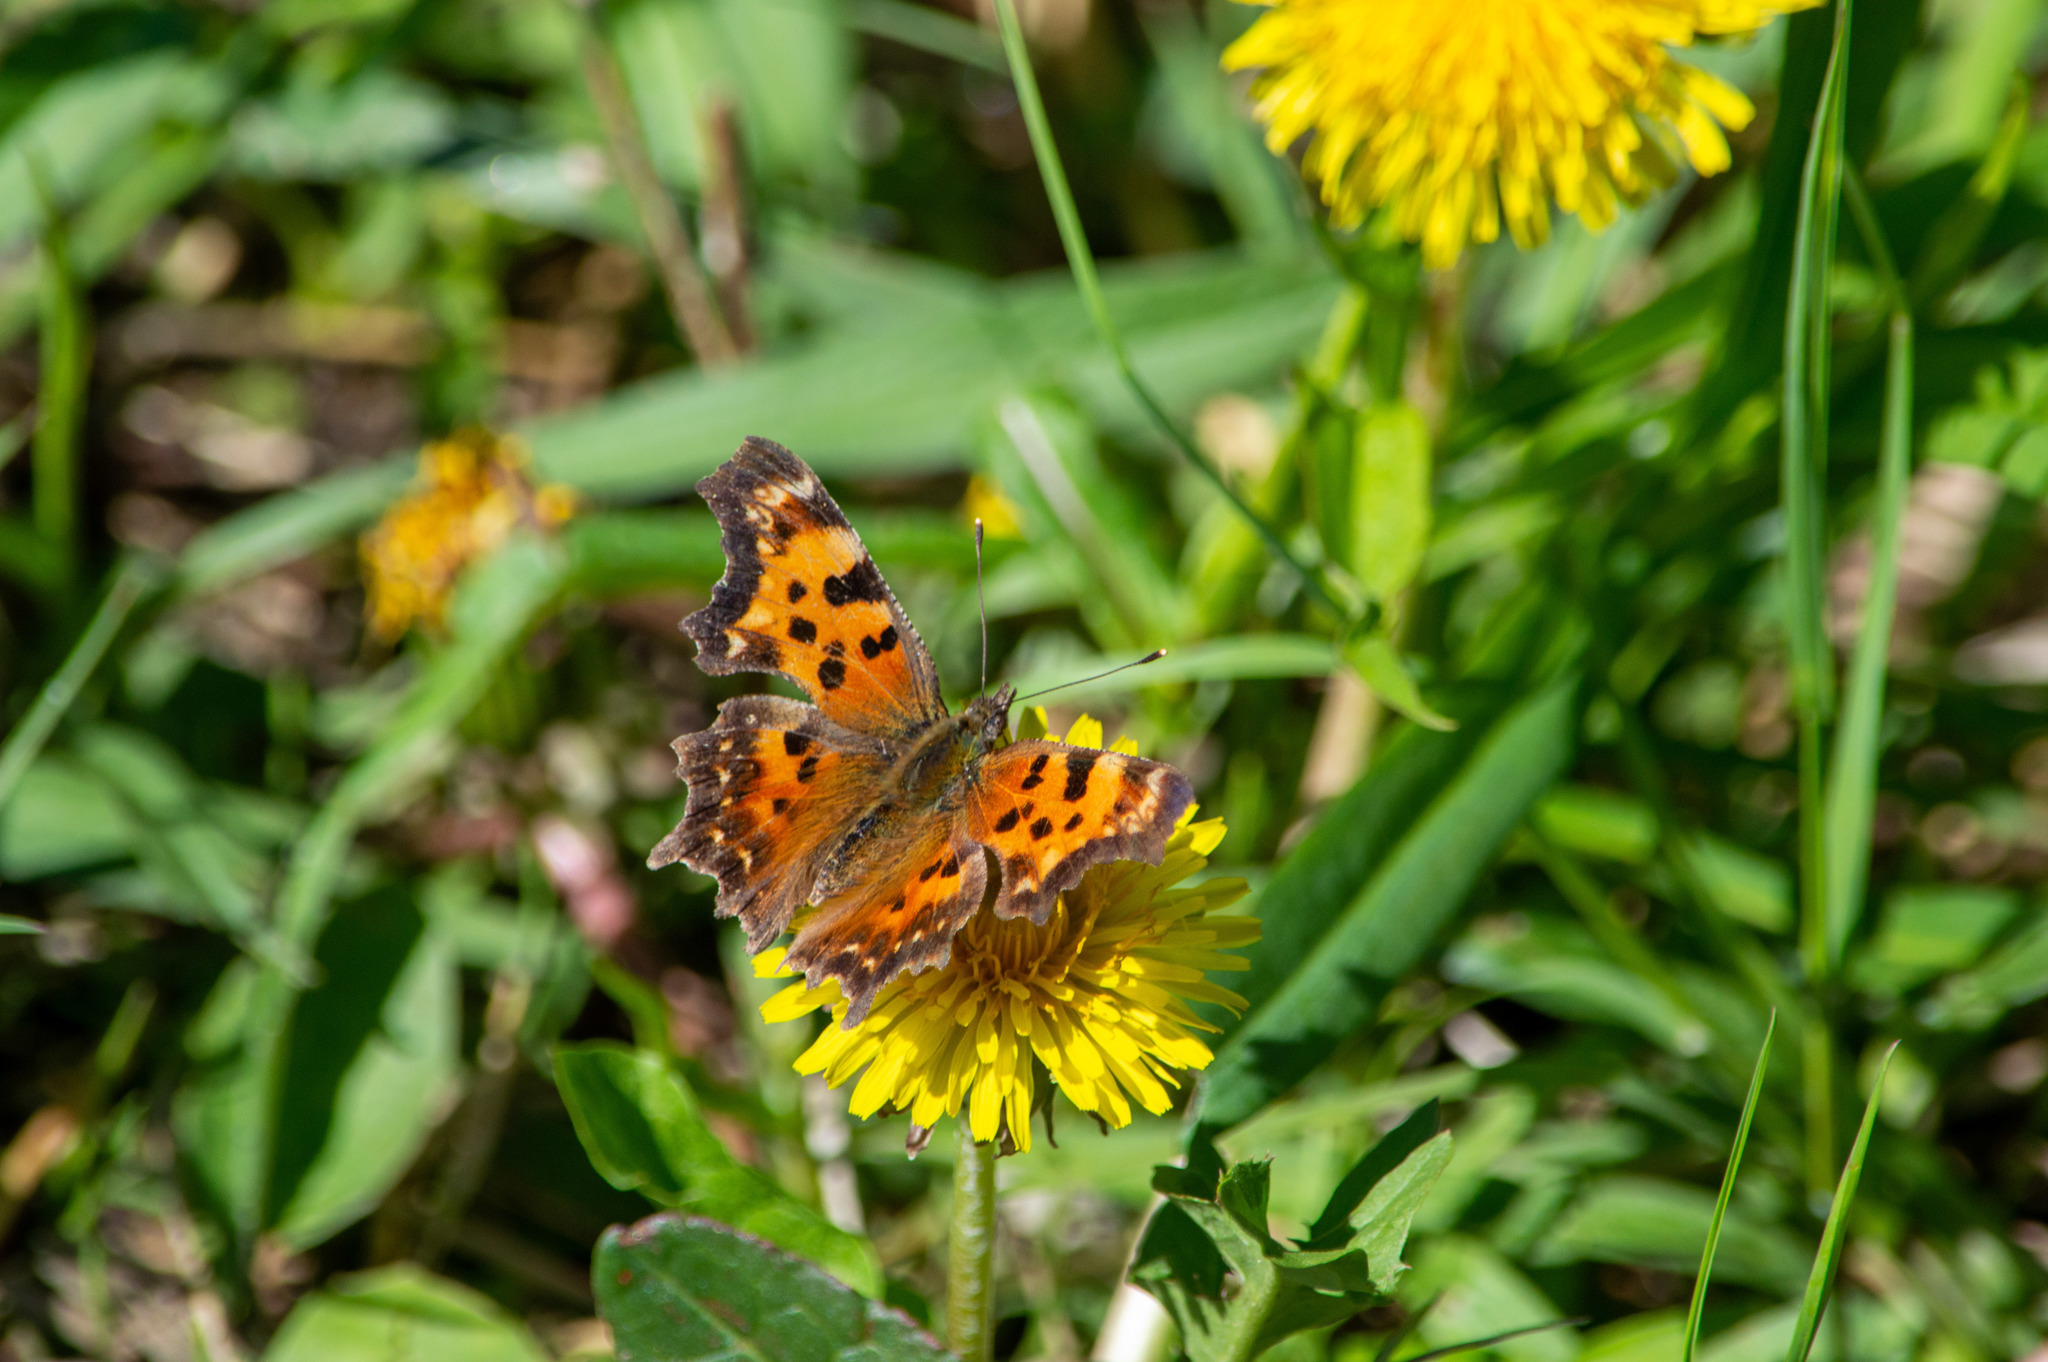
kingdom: Animalia
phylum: Arthropoda
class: Insecta
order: Lepidoptera
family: Nymphalidae
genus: Polygonia
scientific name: Polygonia faunus
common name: Green comma
